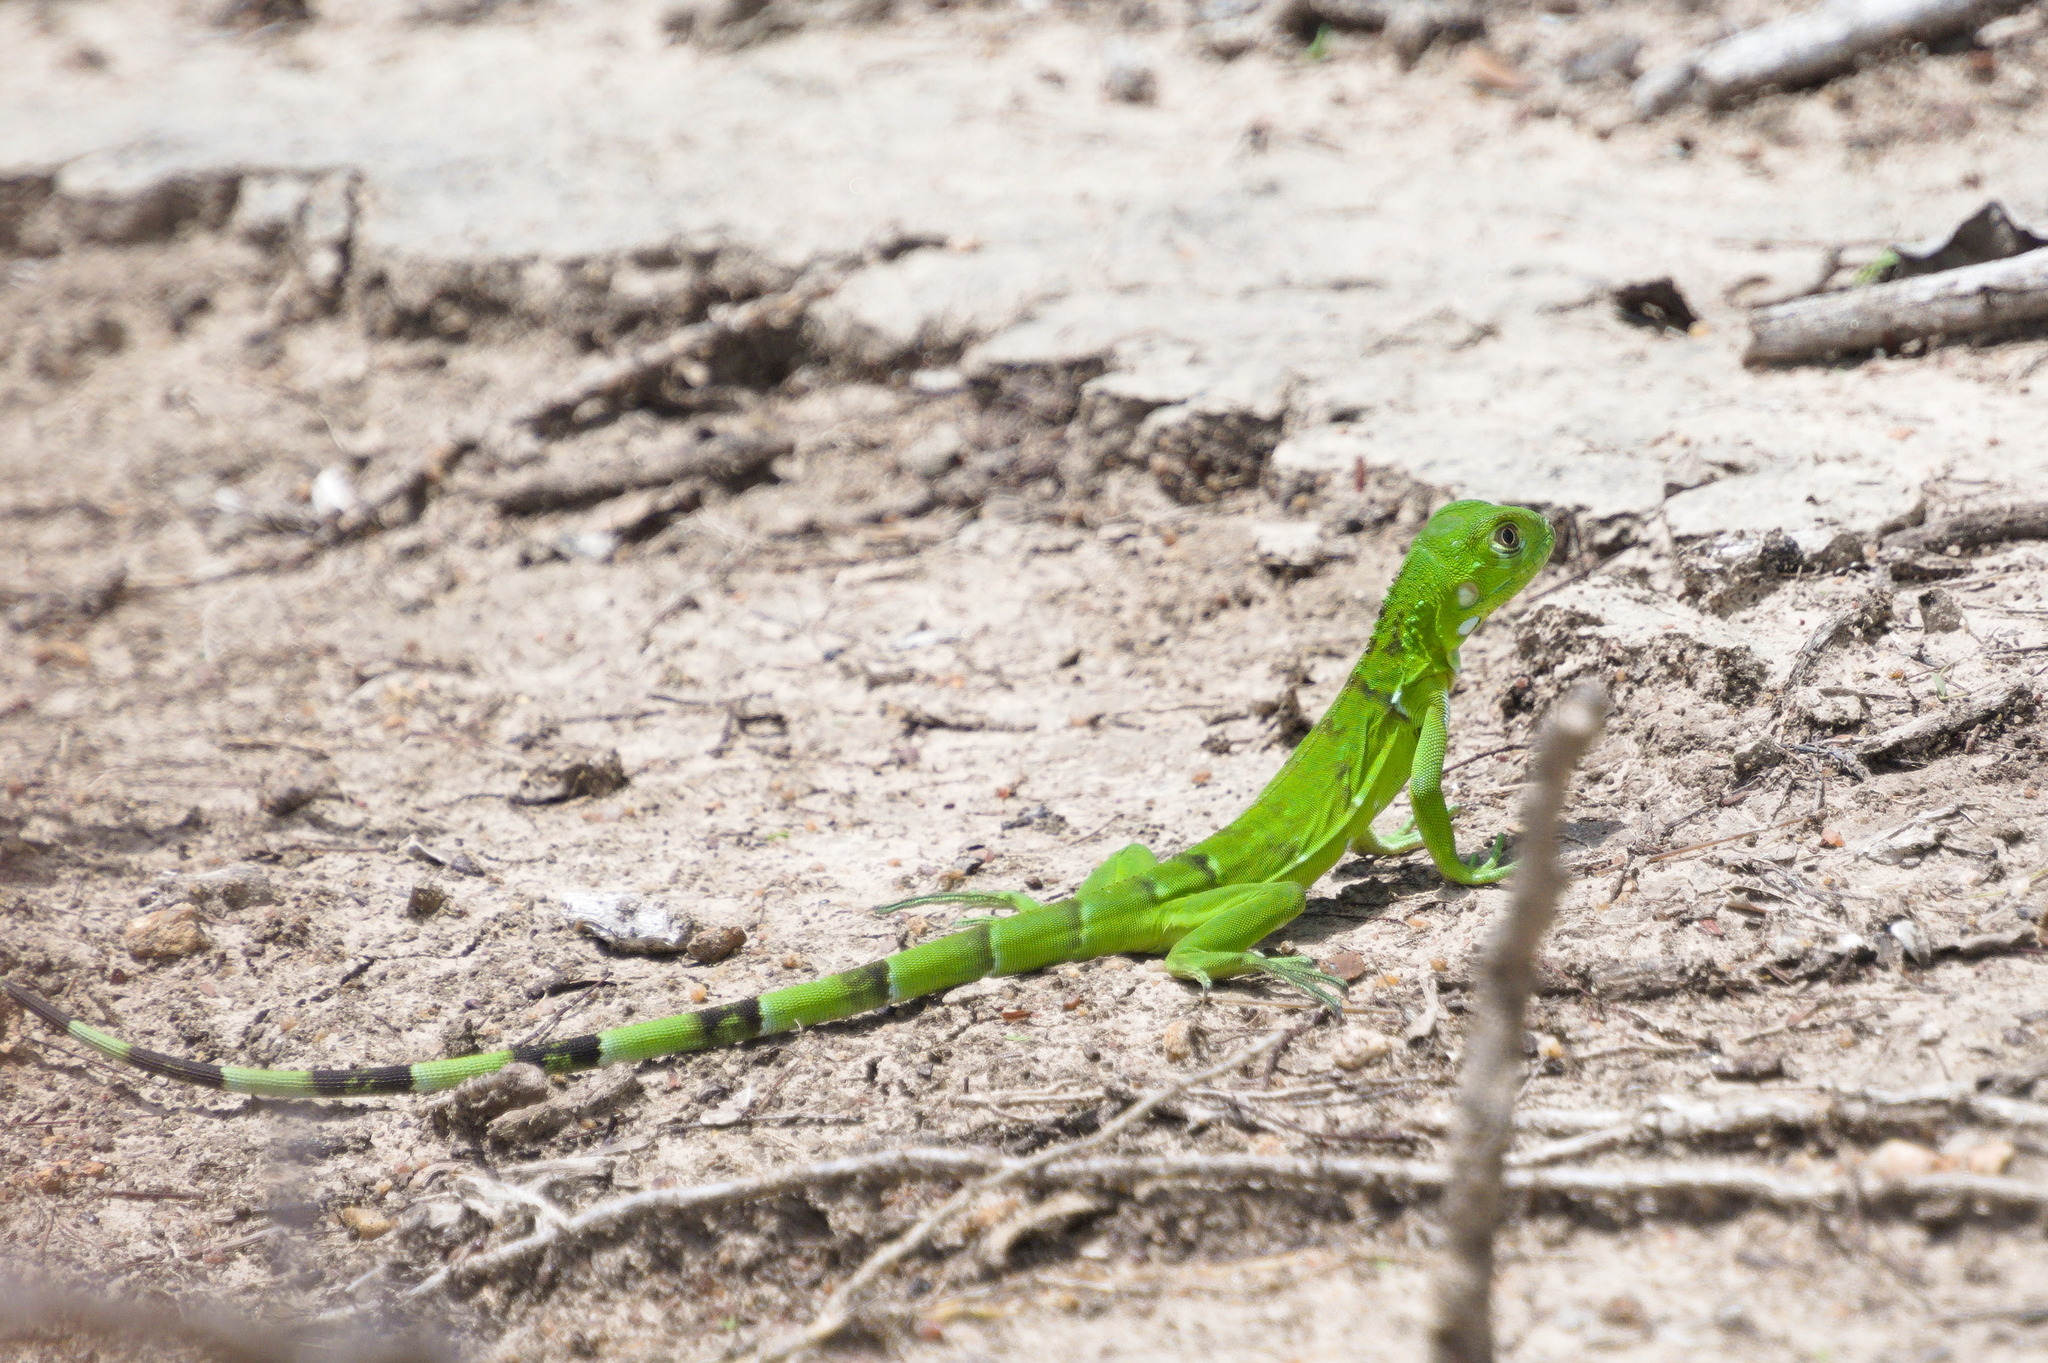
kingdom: Animalia
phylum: Chordata
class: Squamata
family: Iguanidae
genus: Iguana
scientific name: Iguana iguana
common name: Green iguana
